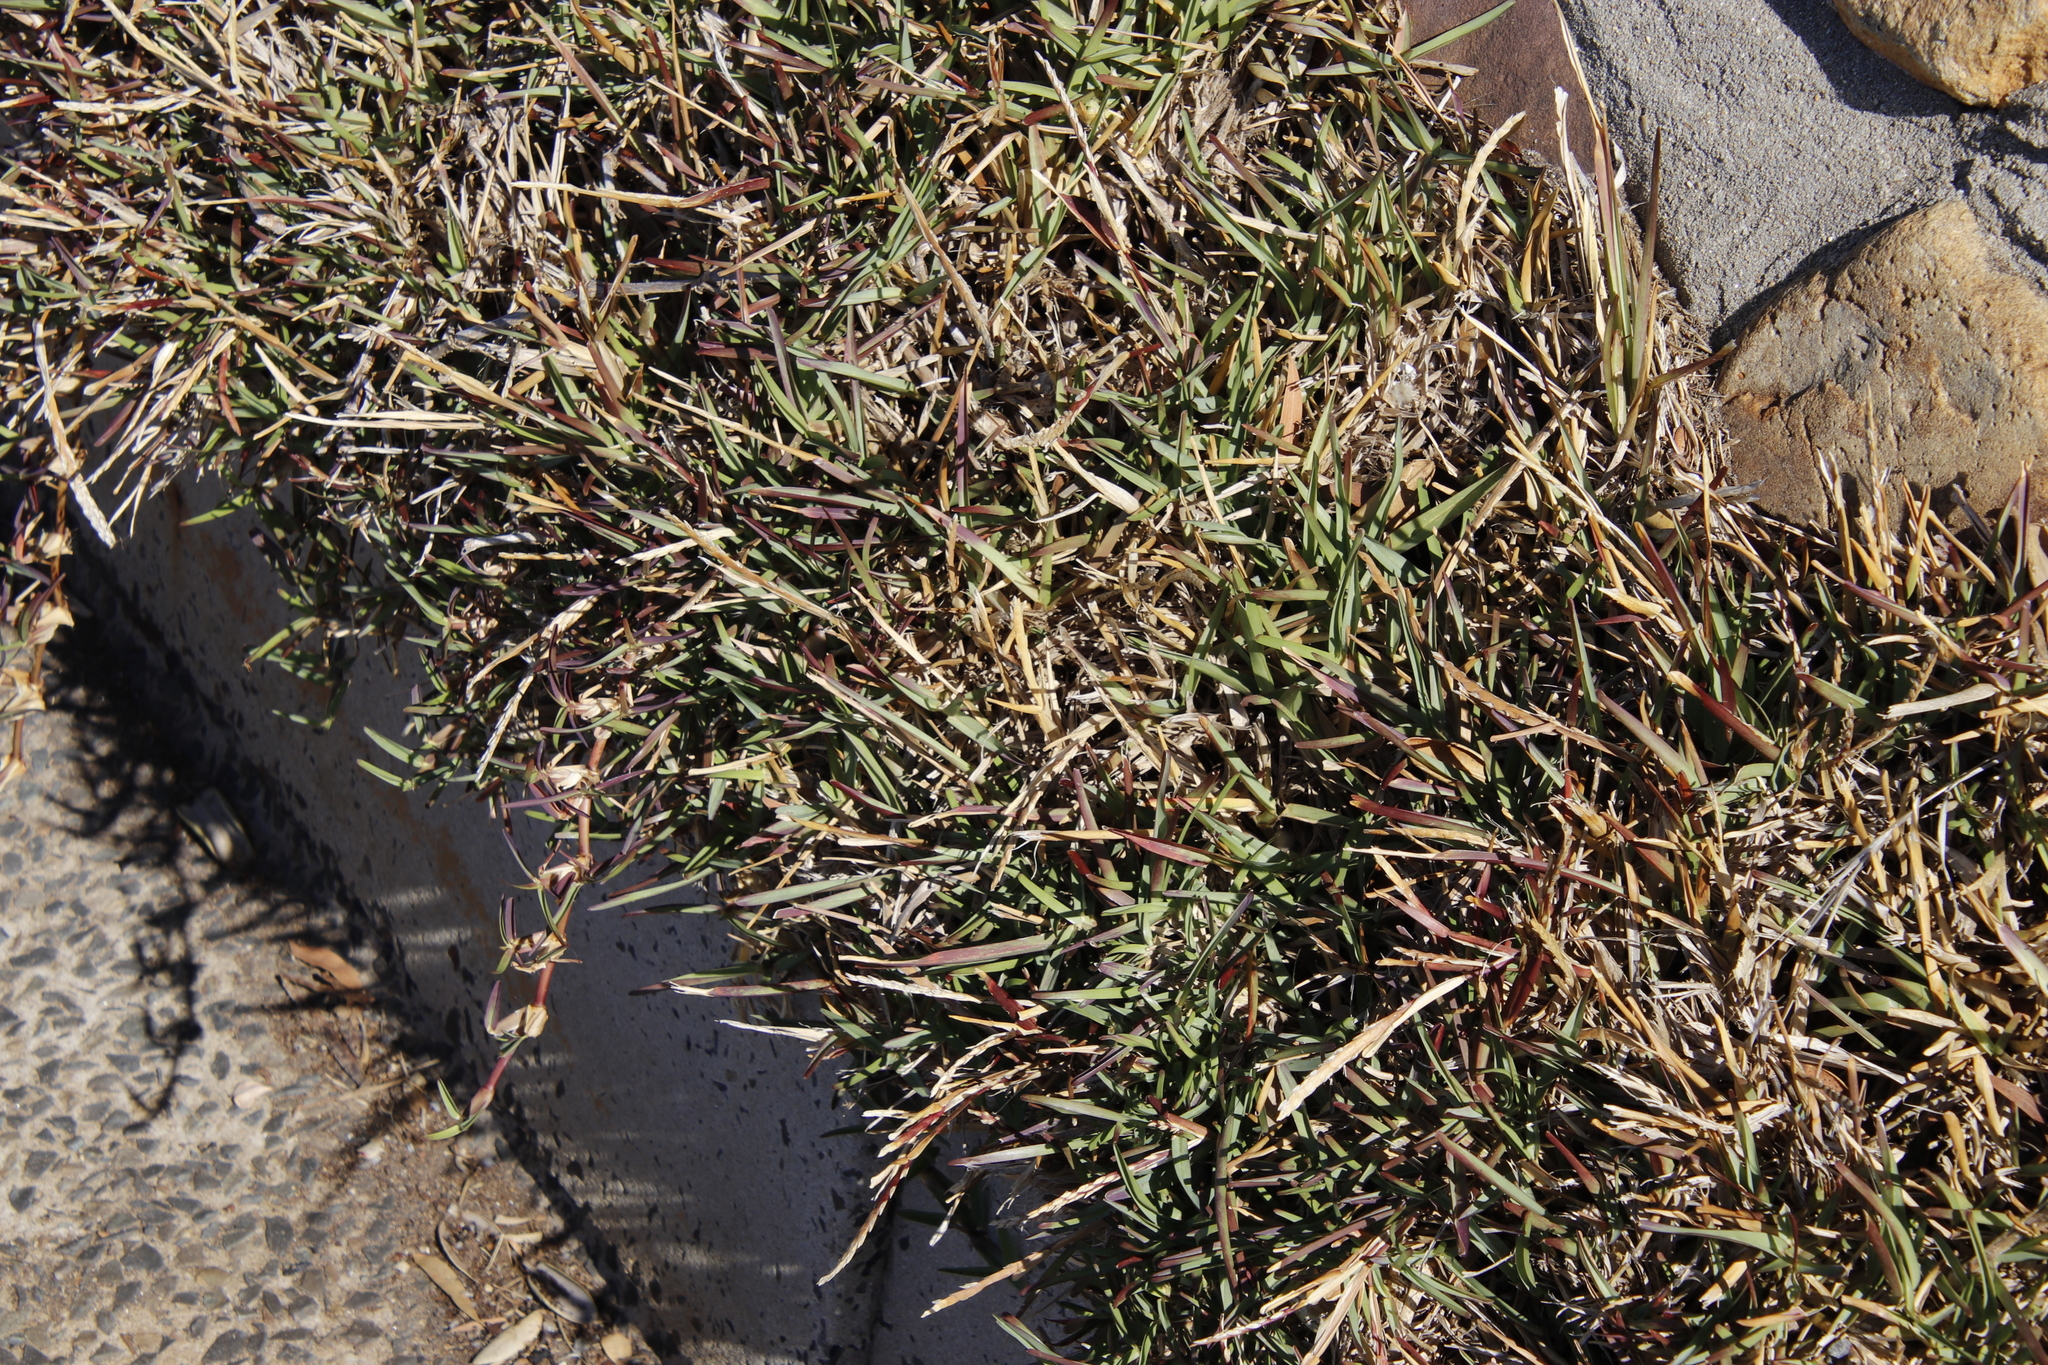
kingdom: Plantae
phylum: Tracheophyta
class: Liliopsida
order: Poales
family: Poaceae
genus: Stenotaphrum
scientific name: Stenotaphrum secundatum
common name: St. augustine grass
